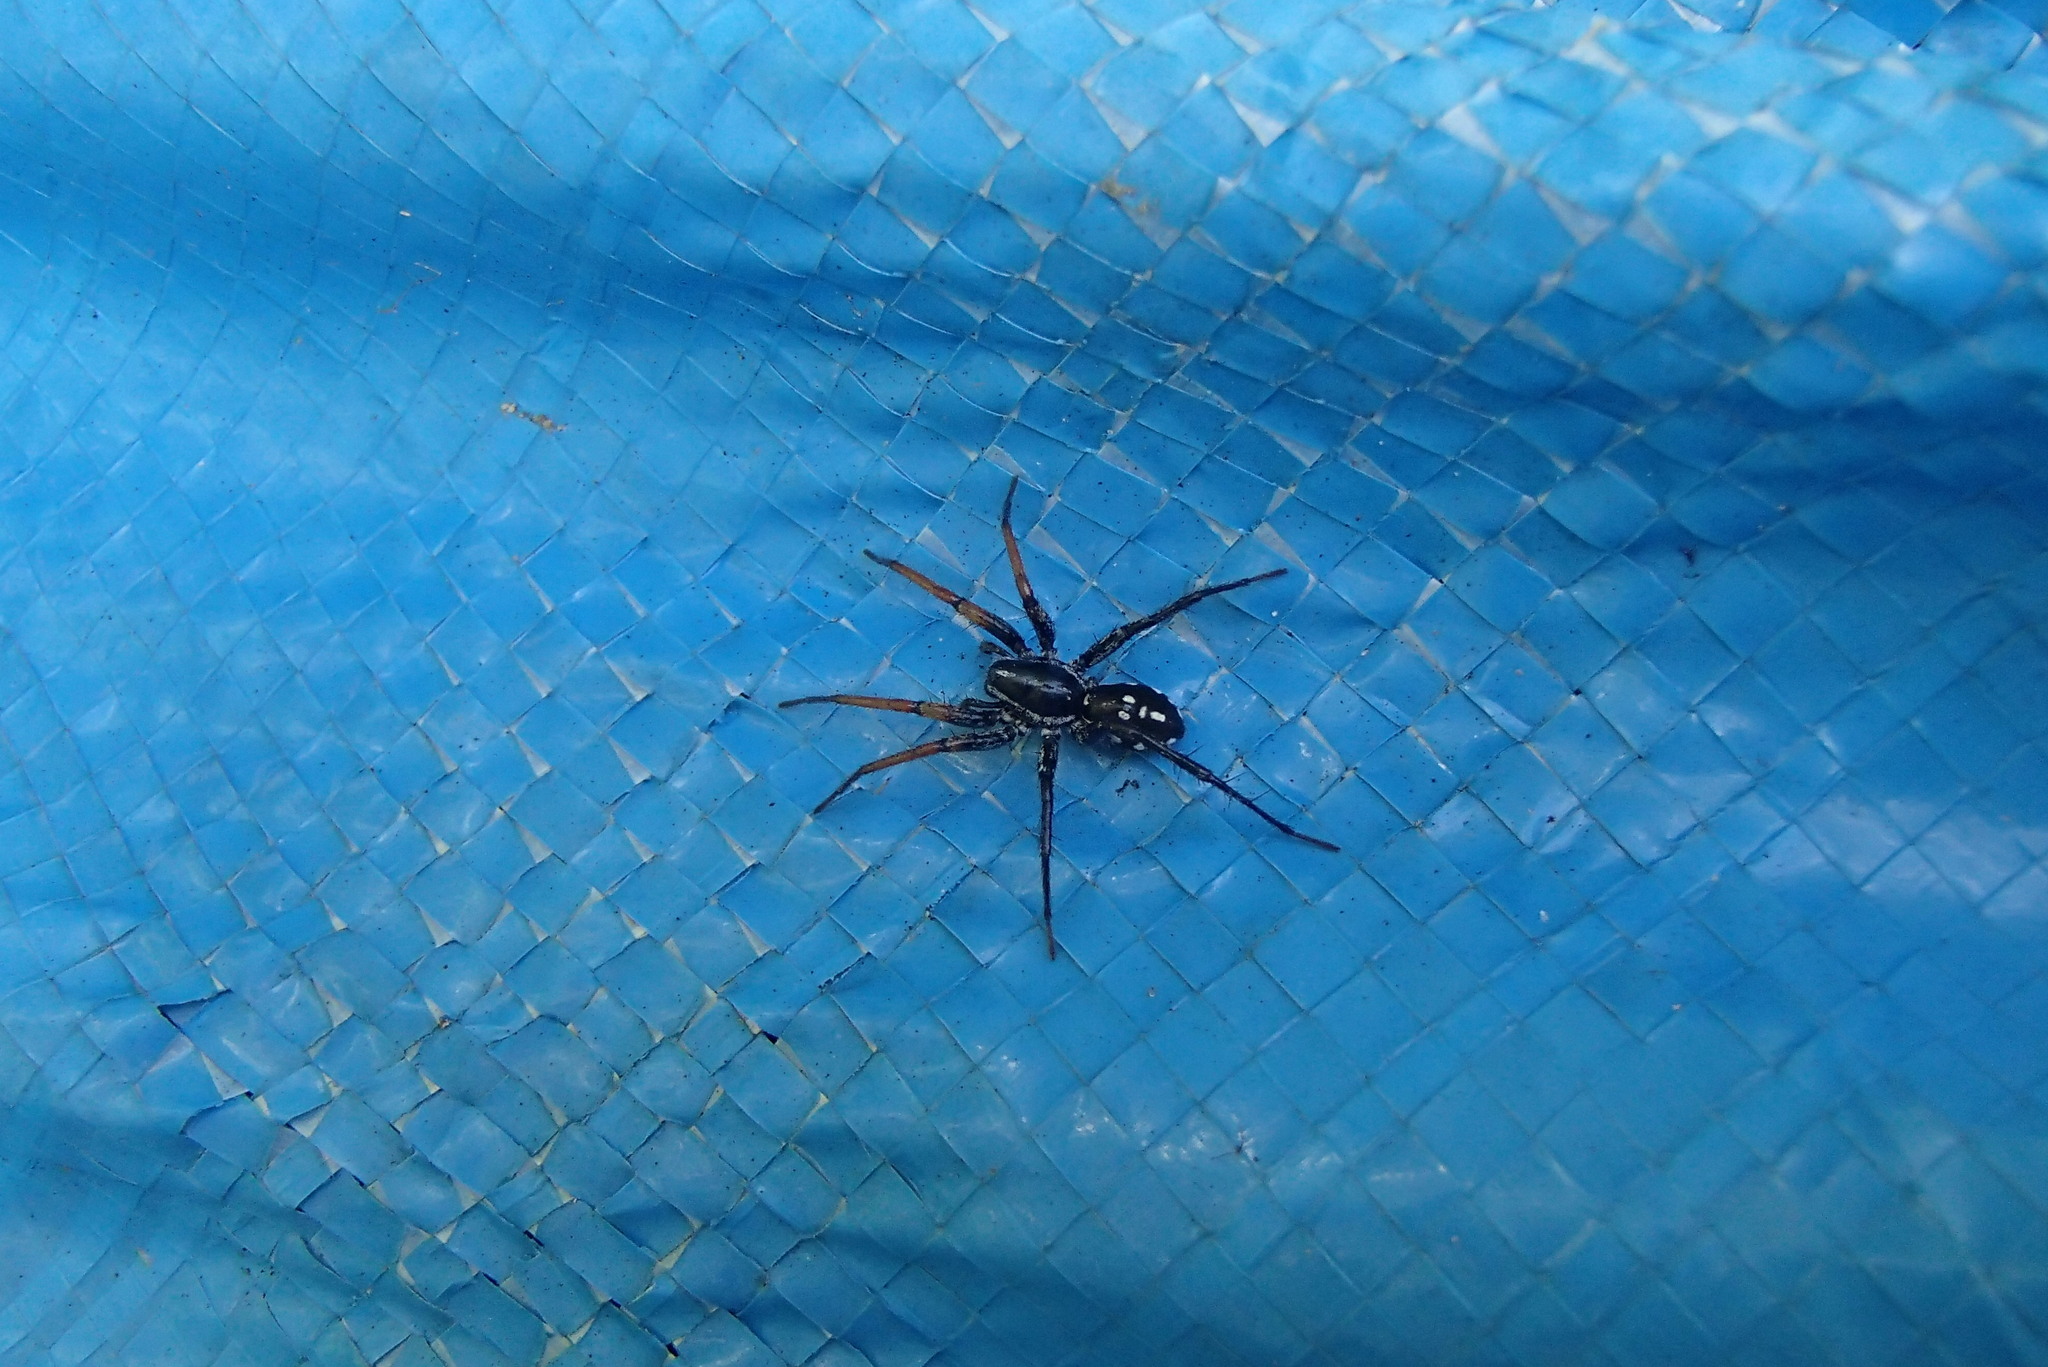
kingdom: Animalia
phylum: Arthropoda
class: Arachnida
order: Araneae
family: Corinnidae
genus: Nyssus
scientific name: Nyssus coloripes
